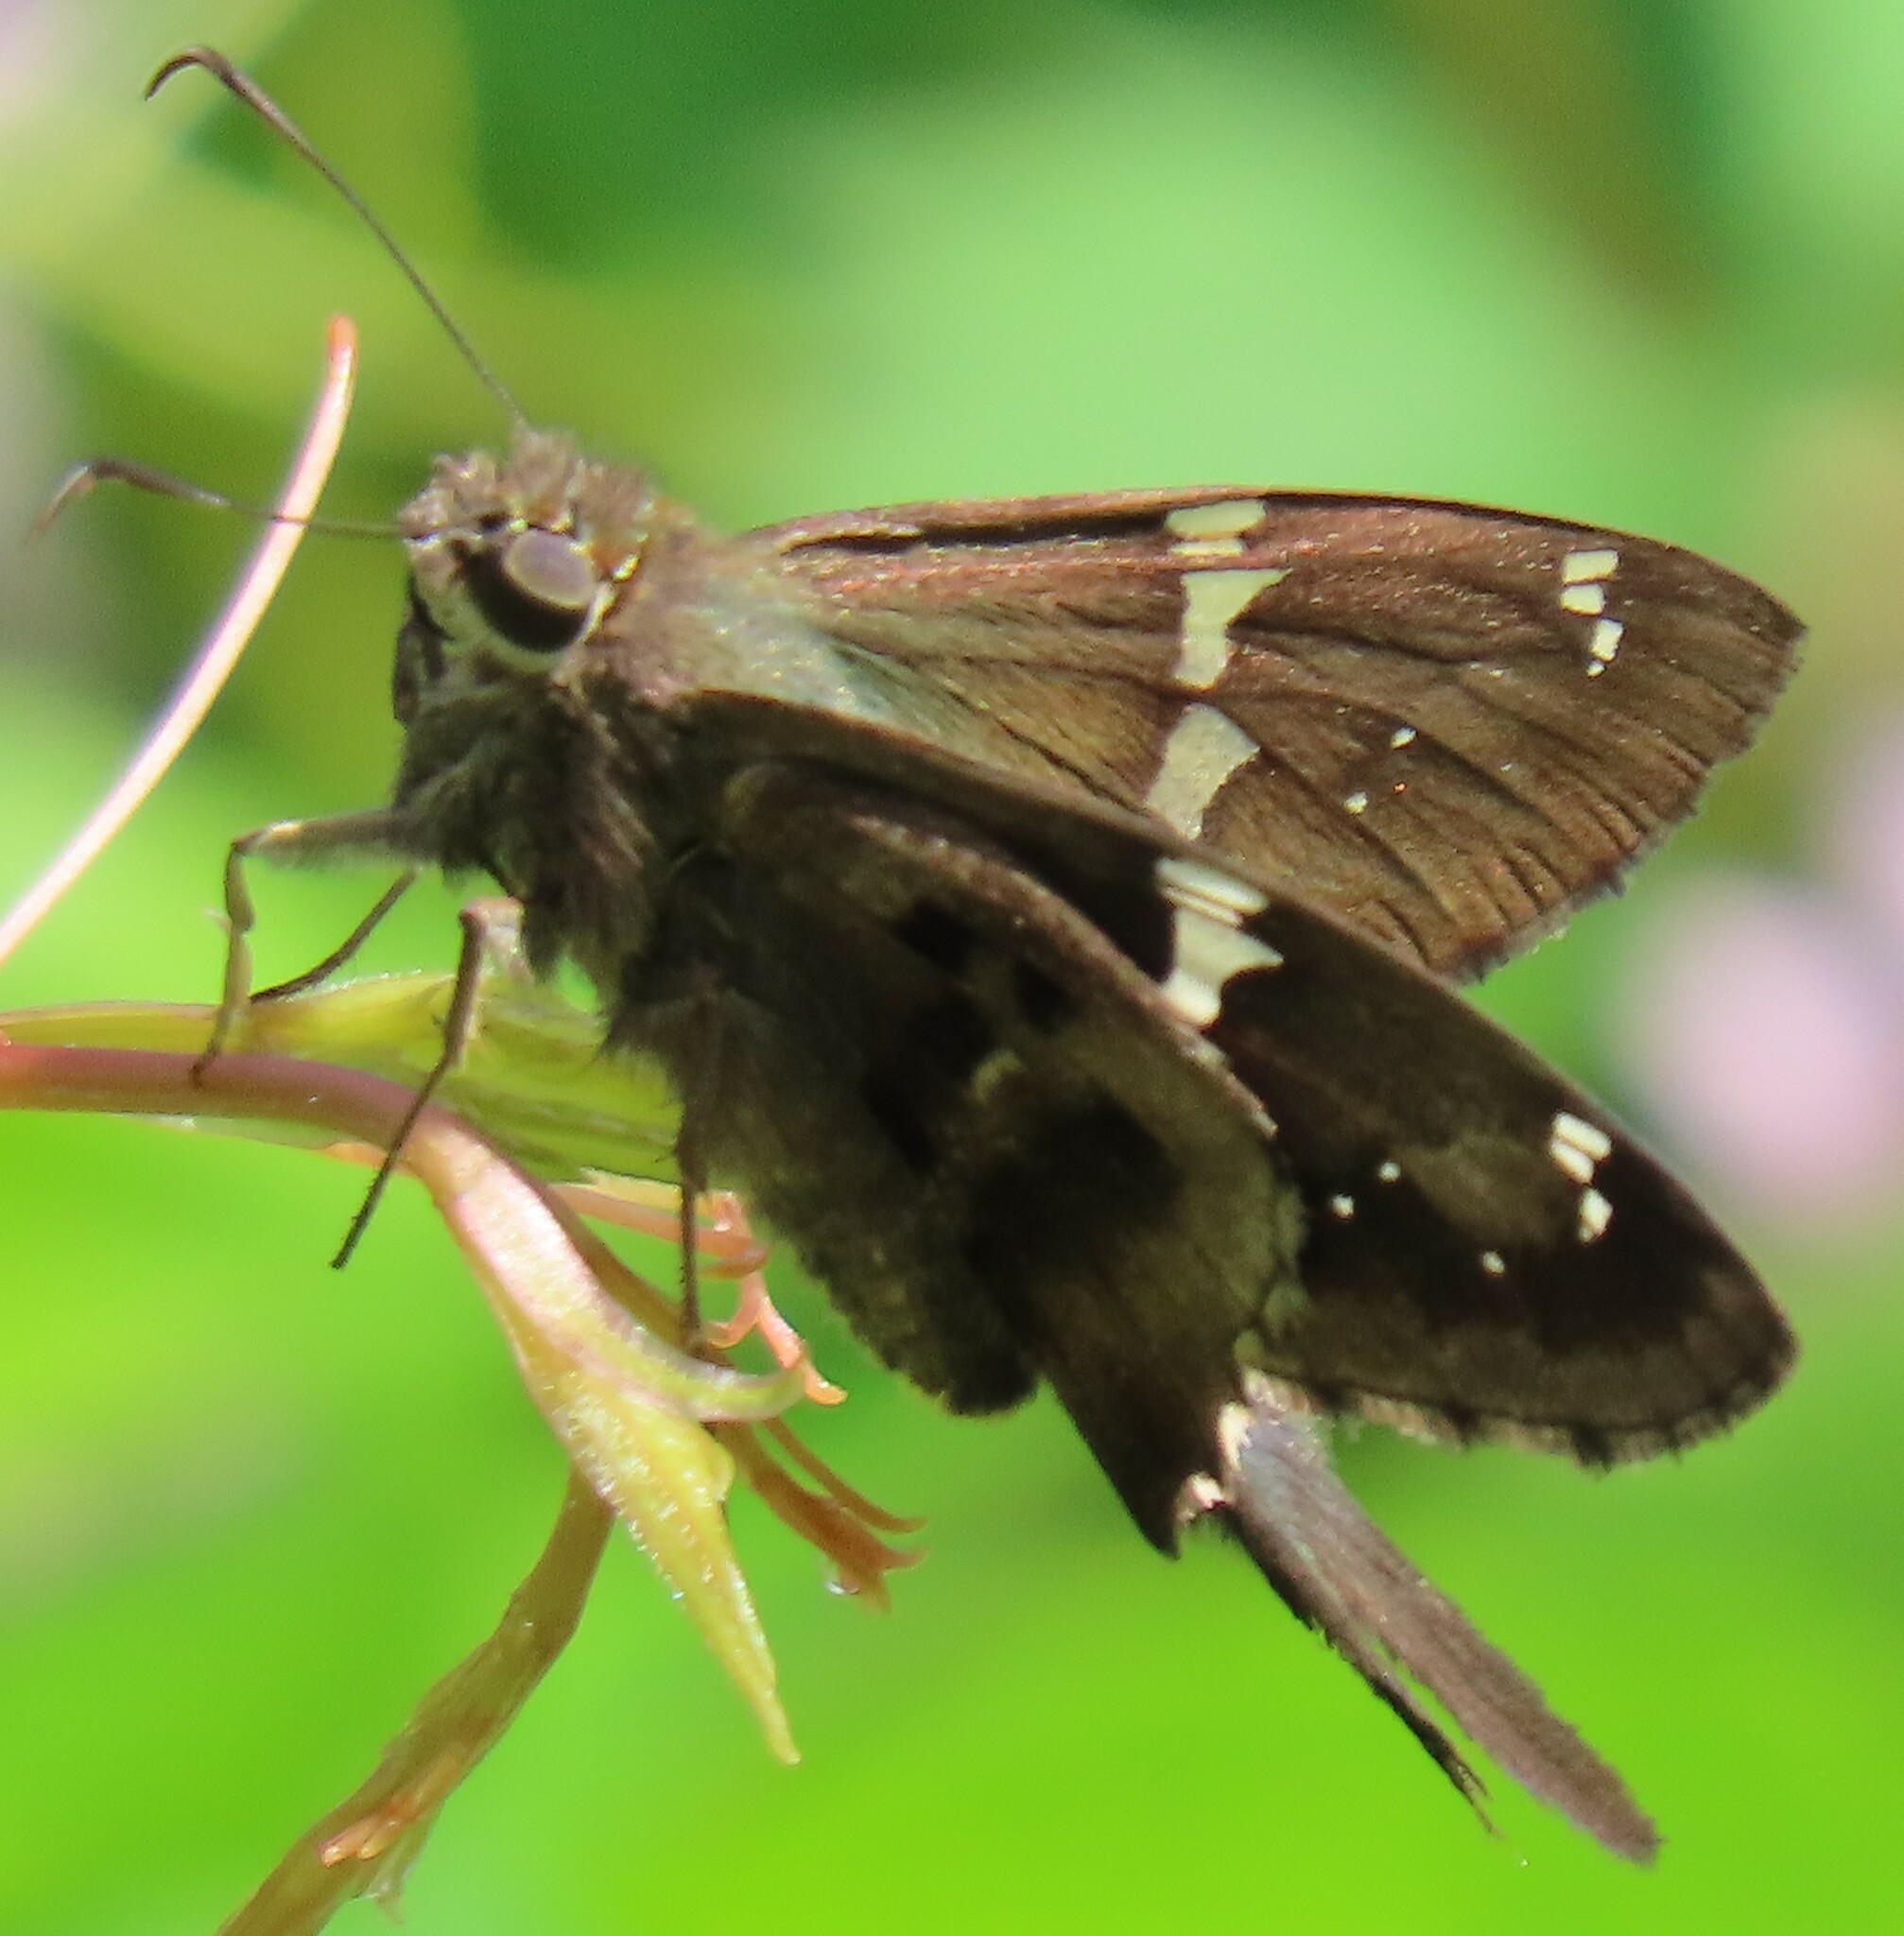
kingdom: Animalia
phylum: Arthropoda
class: Insecta
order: Lepidoptera
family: Hesperiidae
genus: Urbanus
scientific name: Urbanus proteus
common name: Long-tailed skipper
